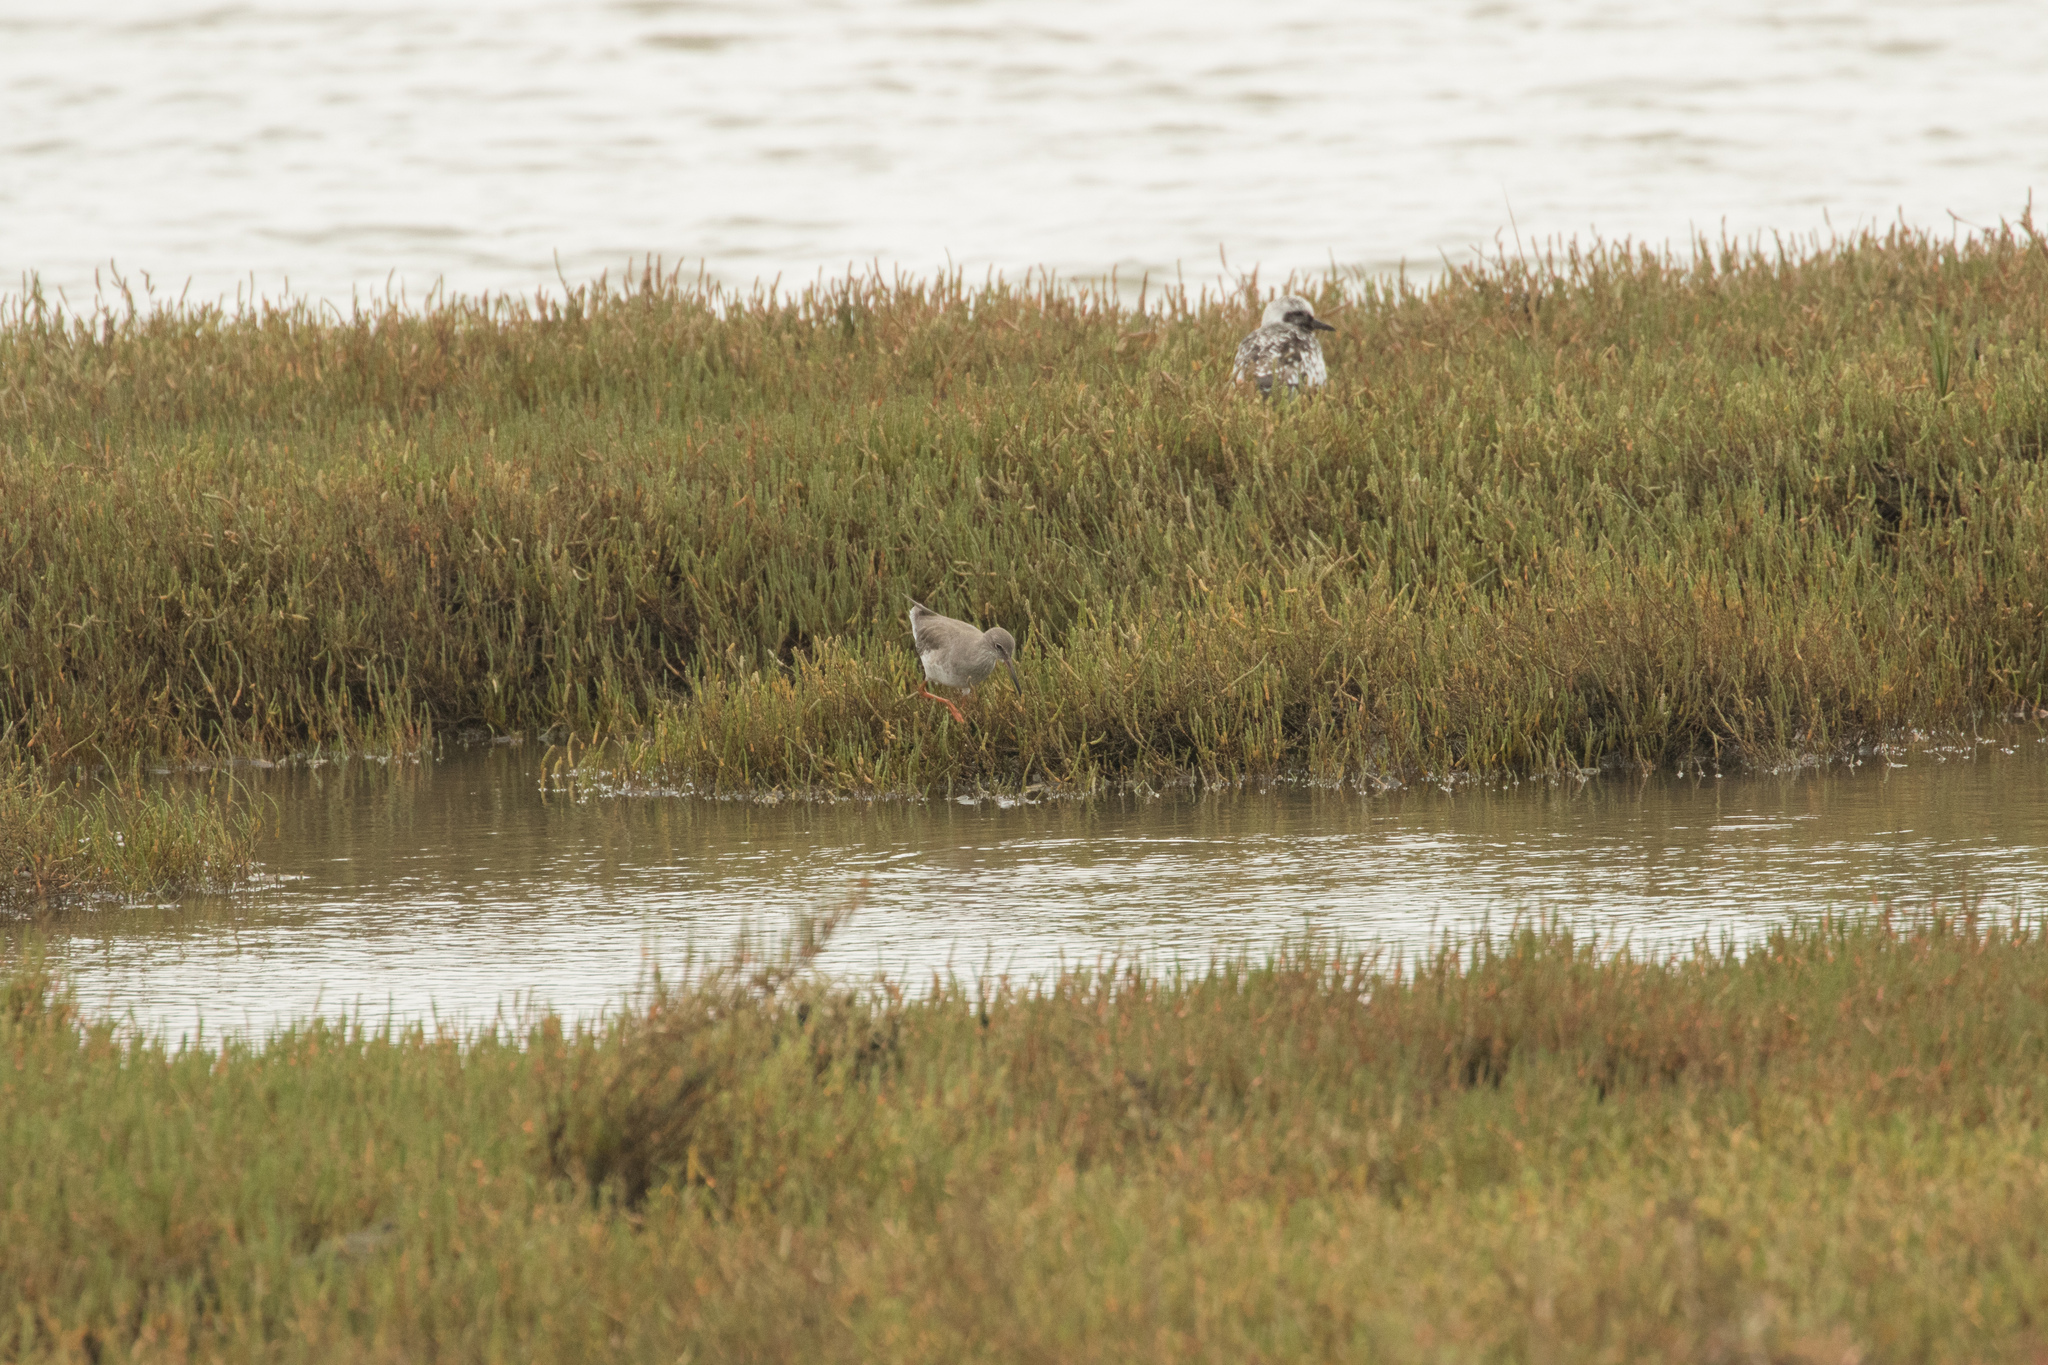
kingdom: Animalia
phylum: Chordata
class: Aves
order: Charadriiformes
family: Charadriidae
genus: Pluvialis
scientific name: Pluvialis squatarola
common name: Grey plover
